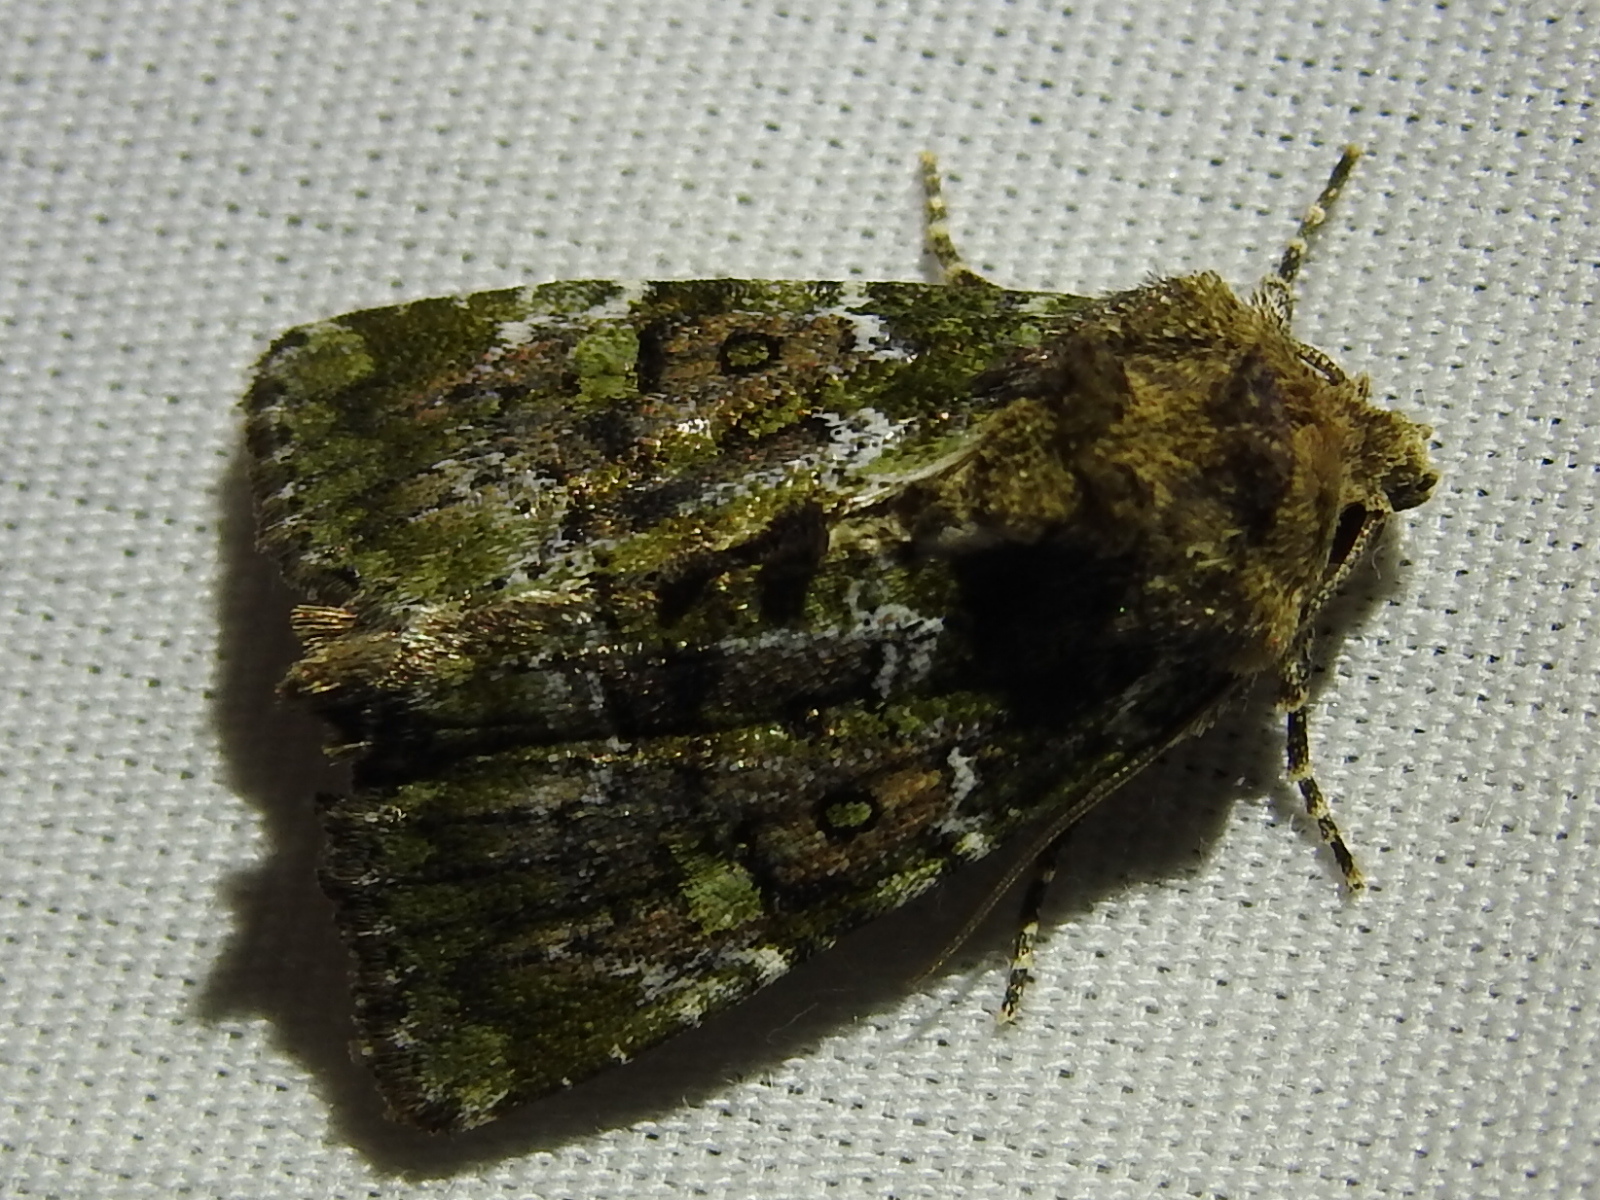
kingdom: Animalia
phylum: Arthropoda
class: Insecta
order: Lepidoptera
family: Noctuidae
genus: Oligia
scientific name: Oligia chlorostigma
